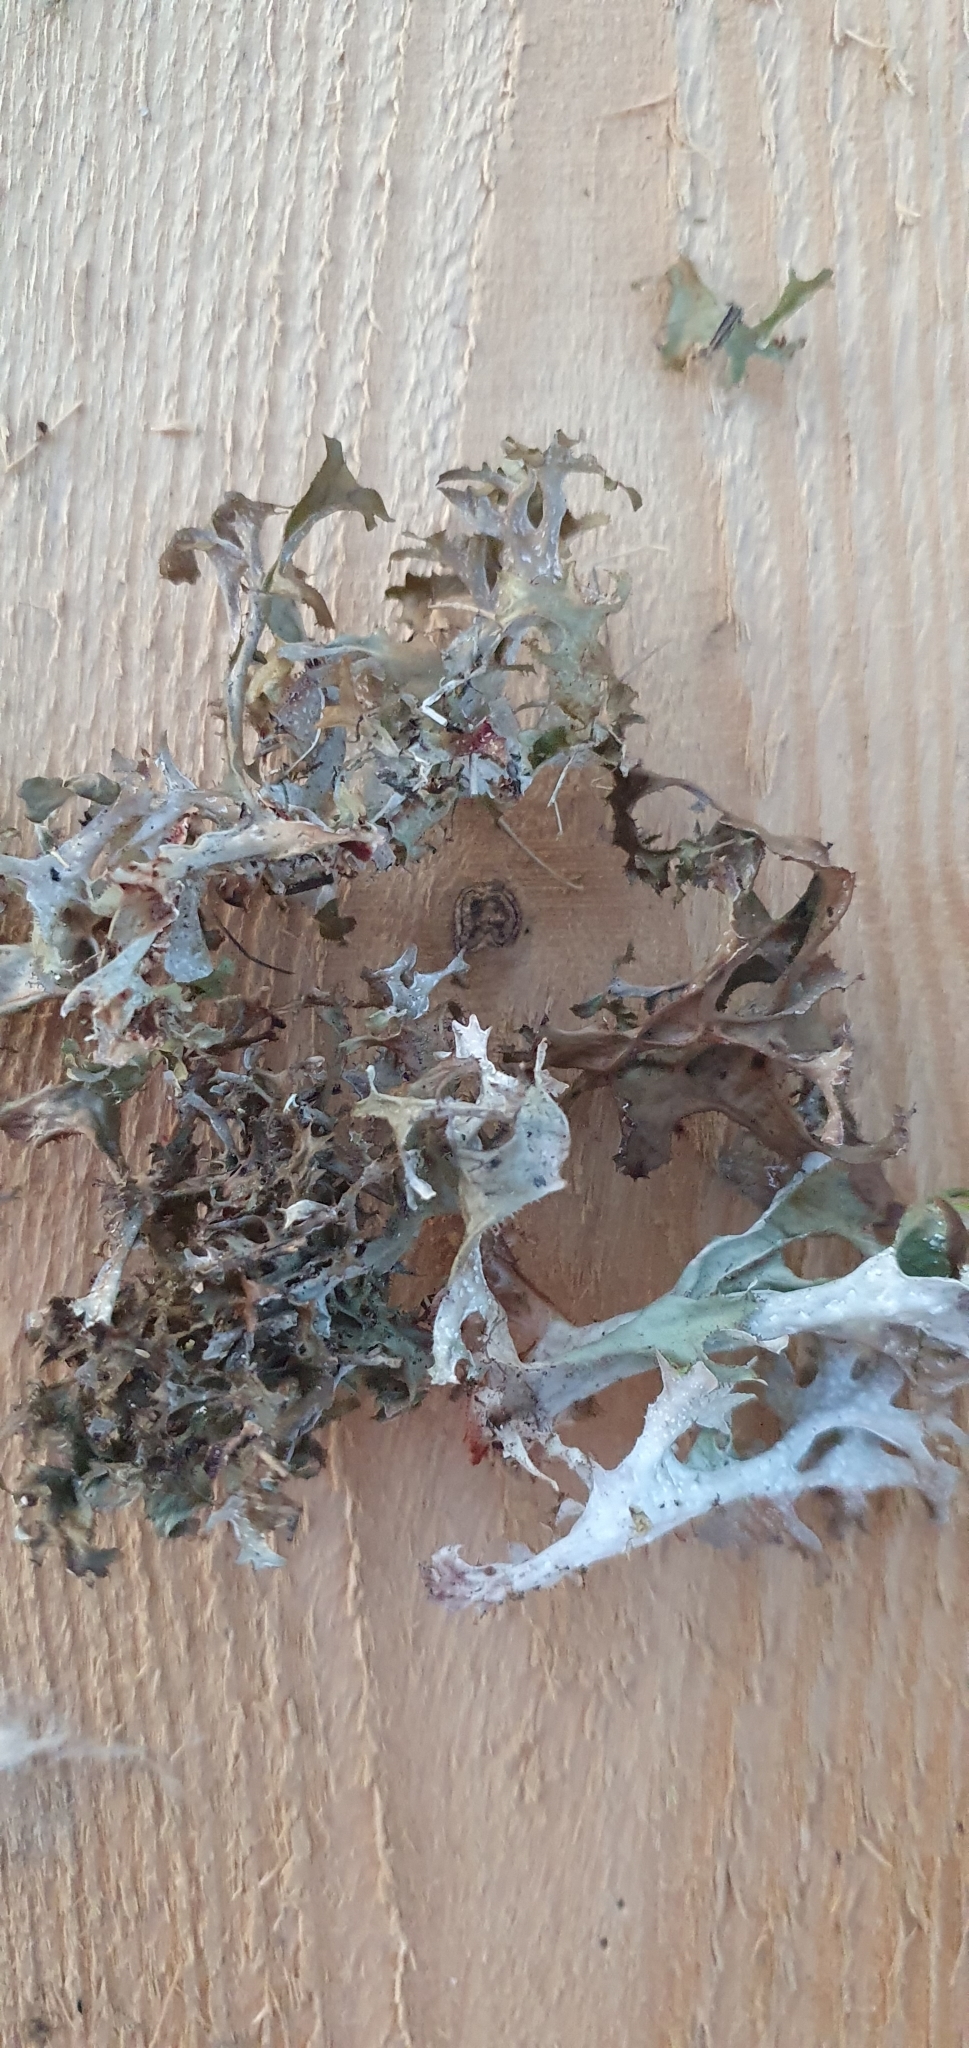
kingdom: Fungi
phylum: Ascomycota
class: Lecanoromycetes
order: Lecanorales
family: Parmeliaceae
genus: Cetraria
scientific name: Cetraria islandica
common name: Iceland lichen
